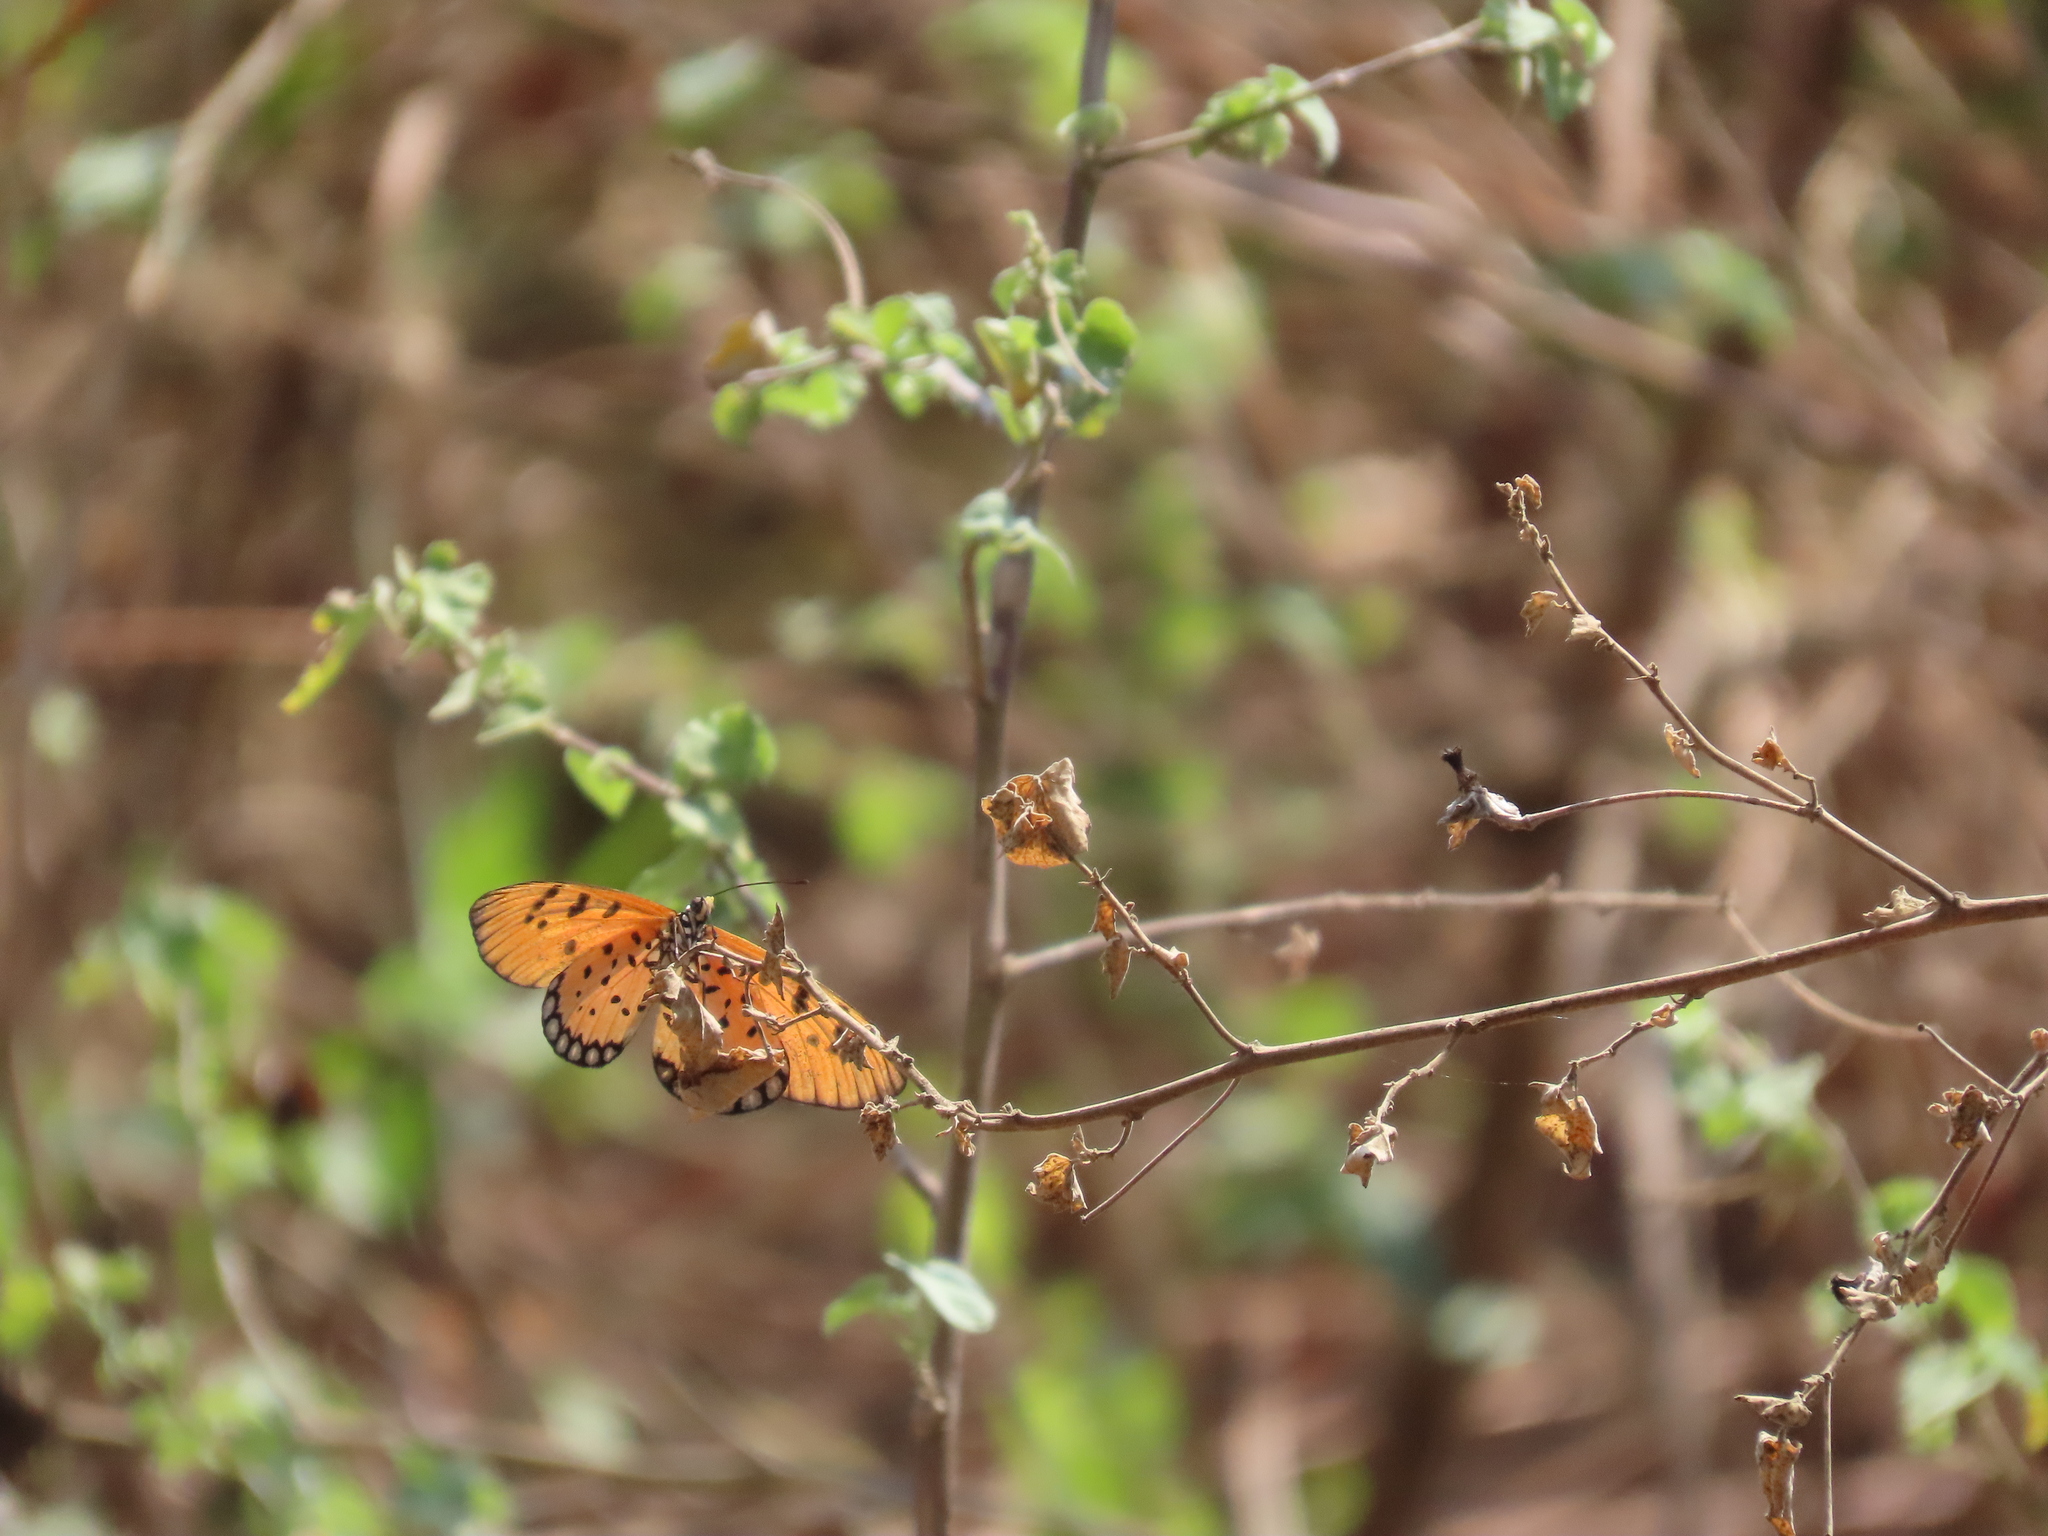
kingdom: Animalia
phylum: Arthropoda
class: Insecta
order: Lepidoptera
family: Nymphalidae
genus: Acraea
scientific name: Acraea terpsicore
